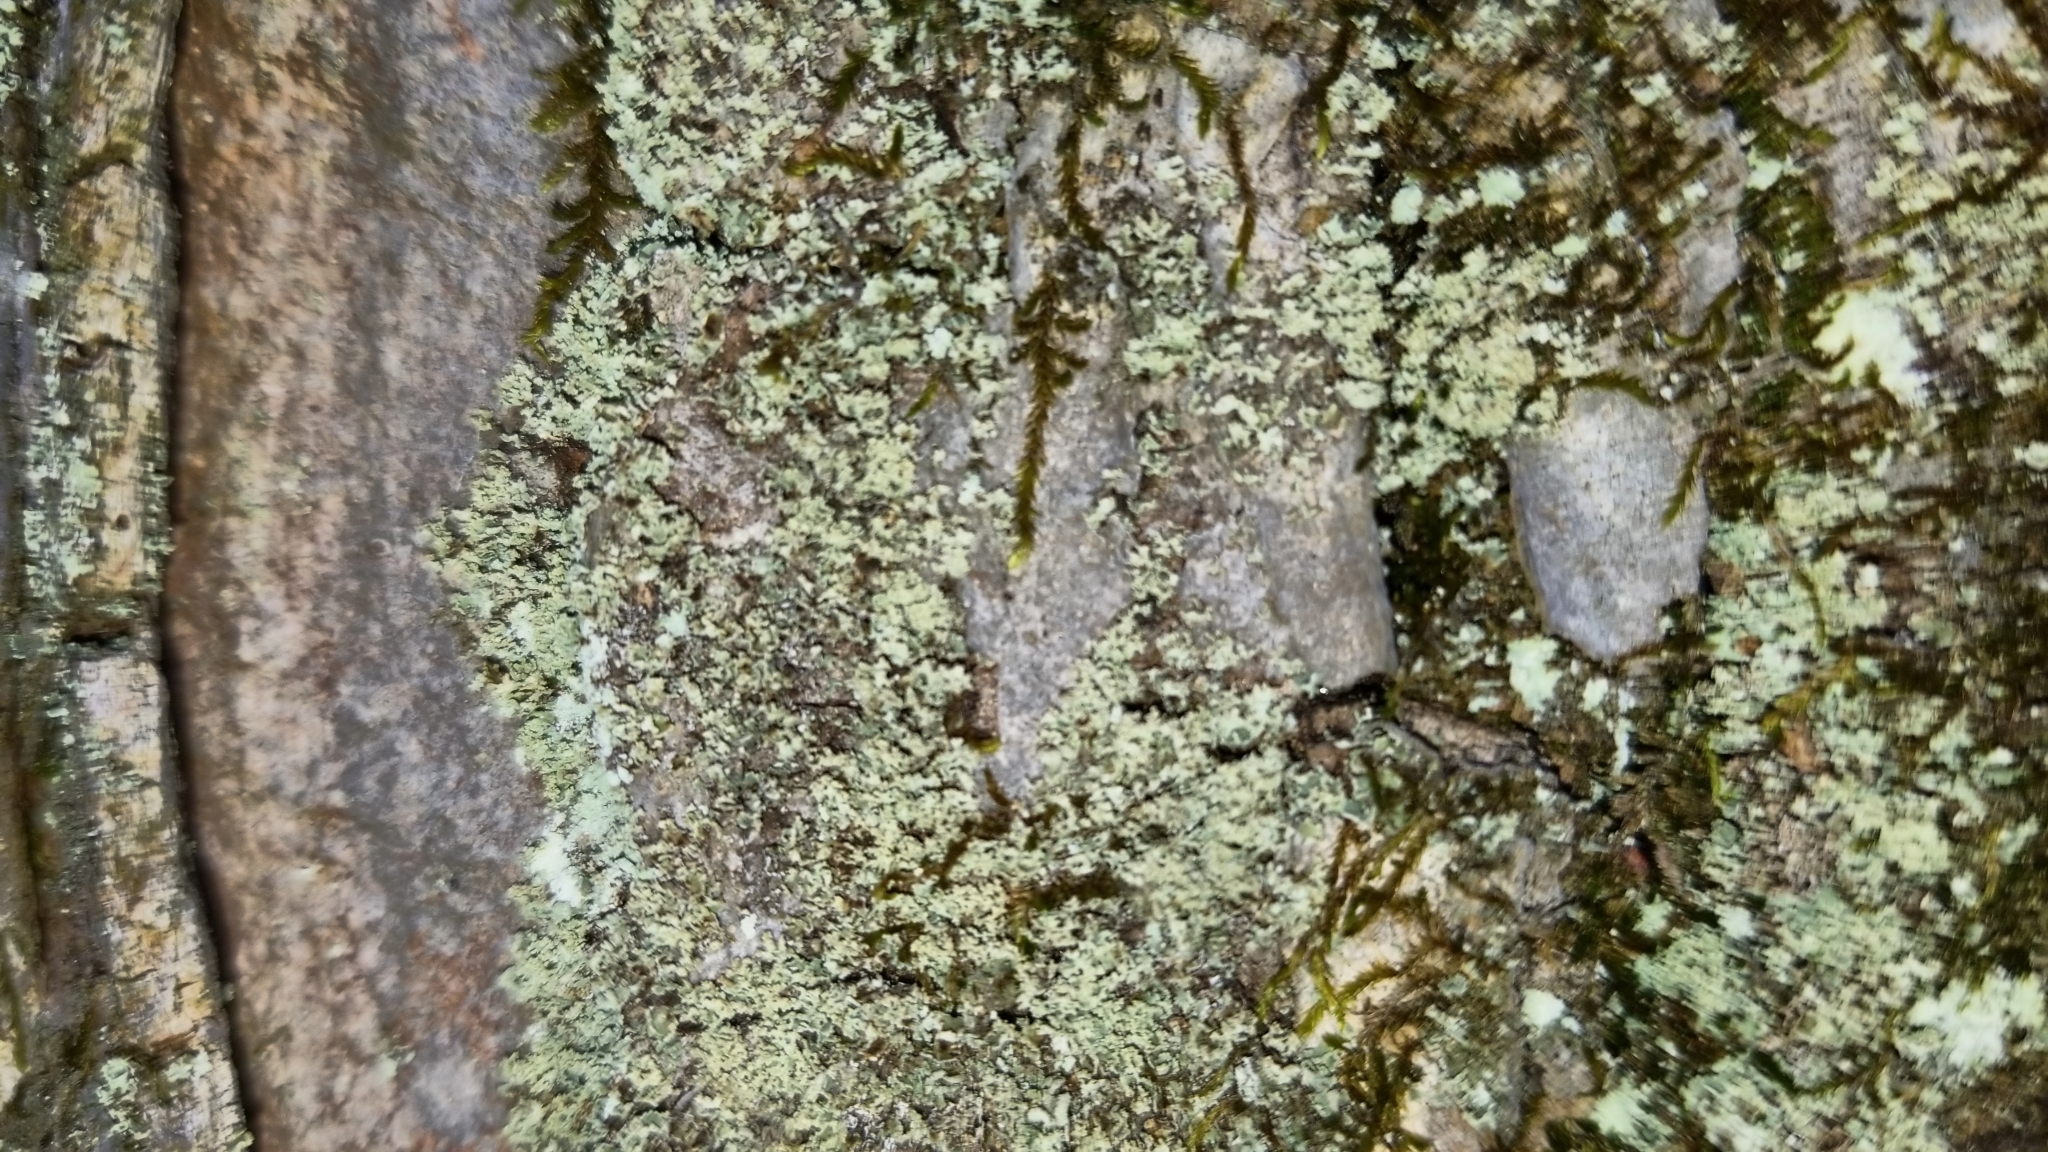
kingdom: Fungi
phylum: Ascomycota
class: Lecanoromycetes
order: Lecanorales
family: Parmeliaceae
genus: Flavoparmelia
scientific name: Flavoparmelia caperata
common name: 40-mile per hour lichen
